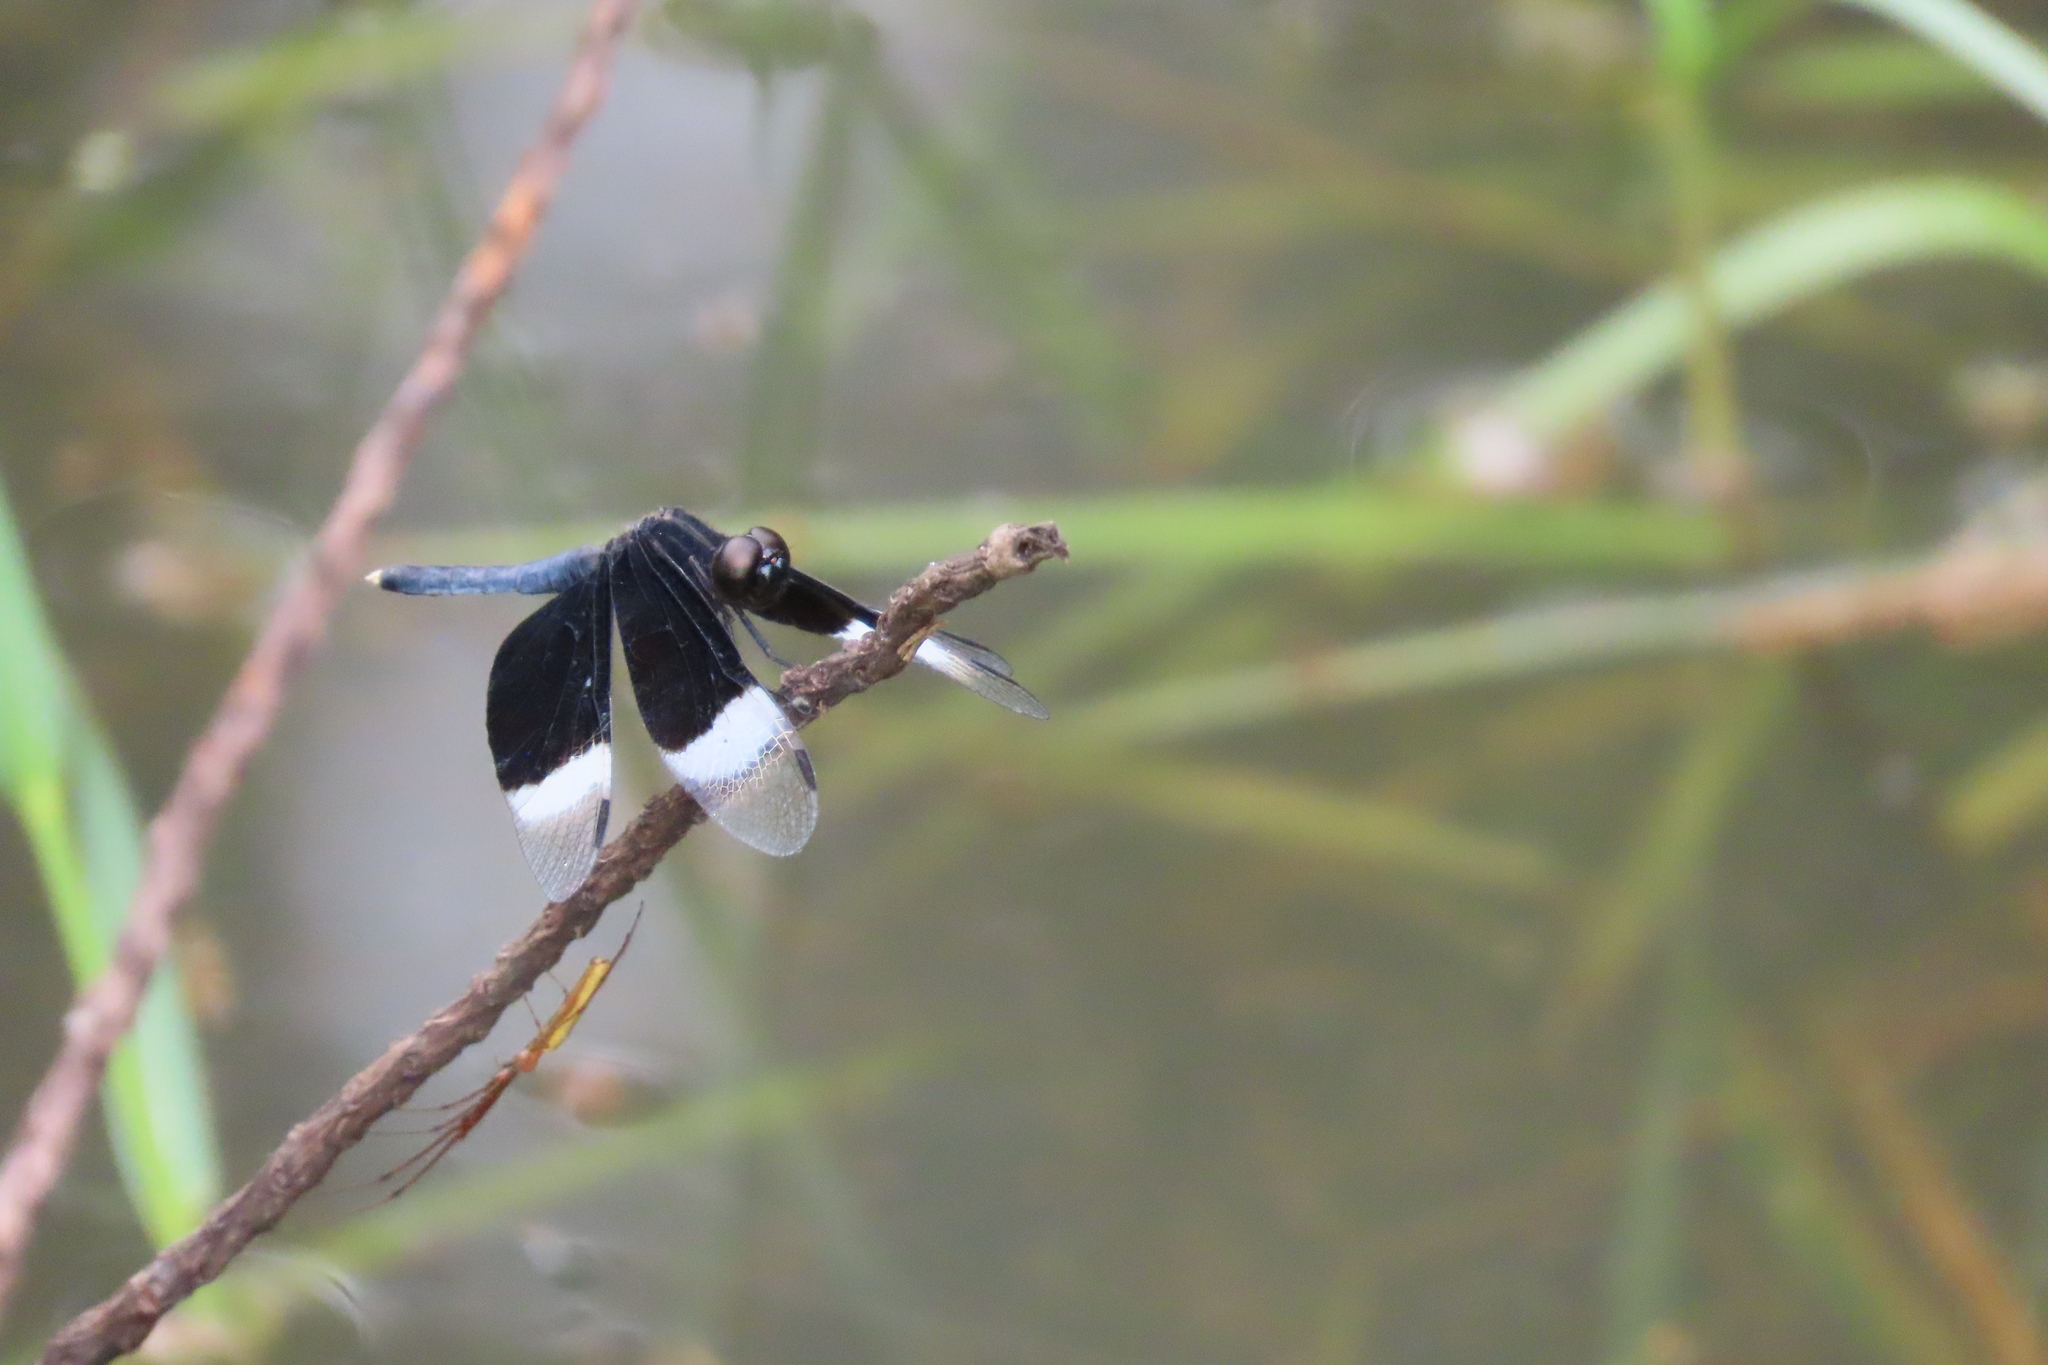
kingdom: Animalia
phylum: Arthropoda
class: Insecta
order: Odonata
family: Libellulidae
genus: Neurothemis
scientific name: Neurothemis tullia
